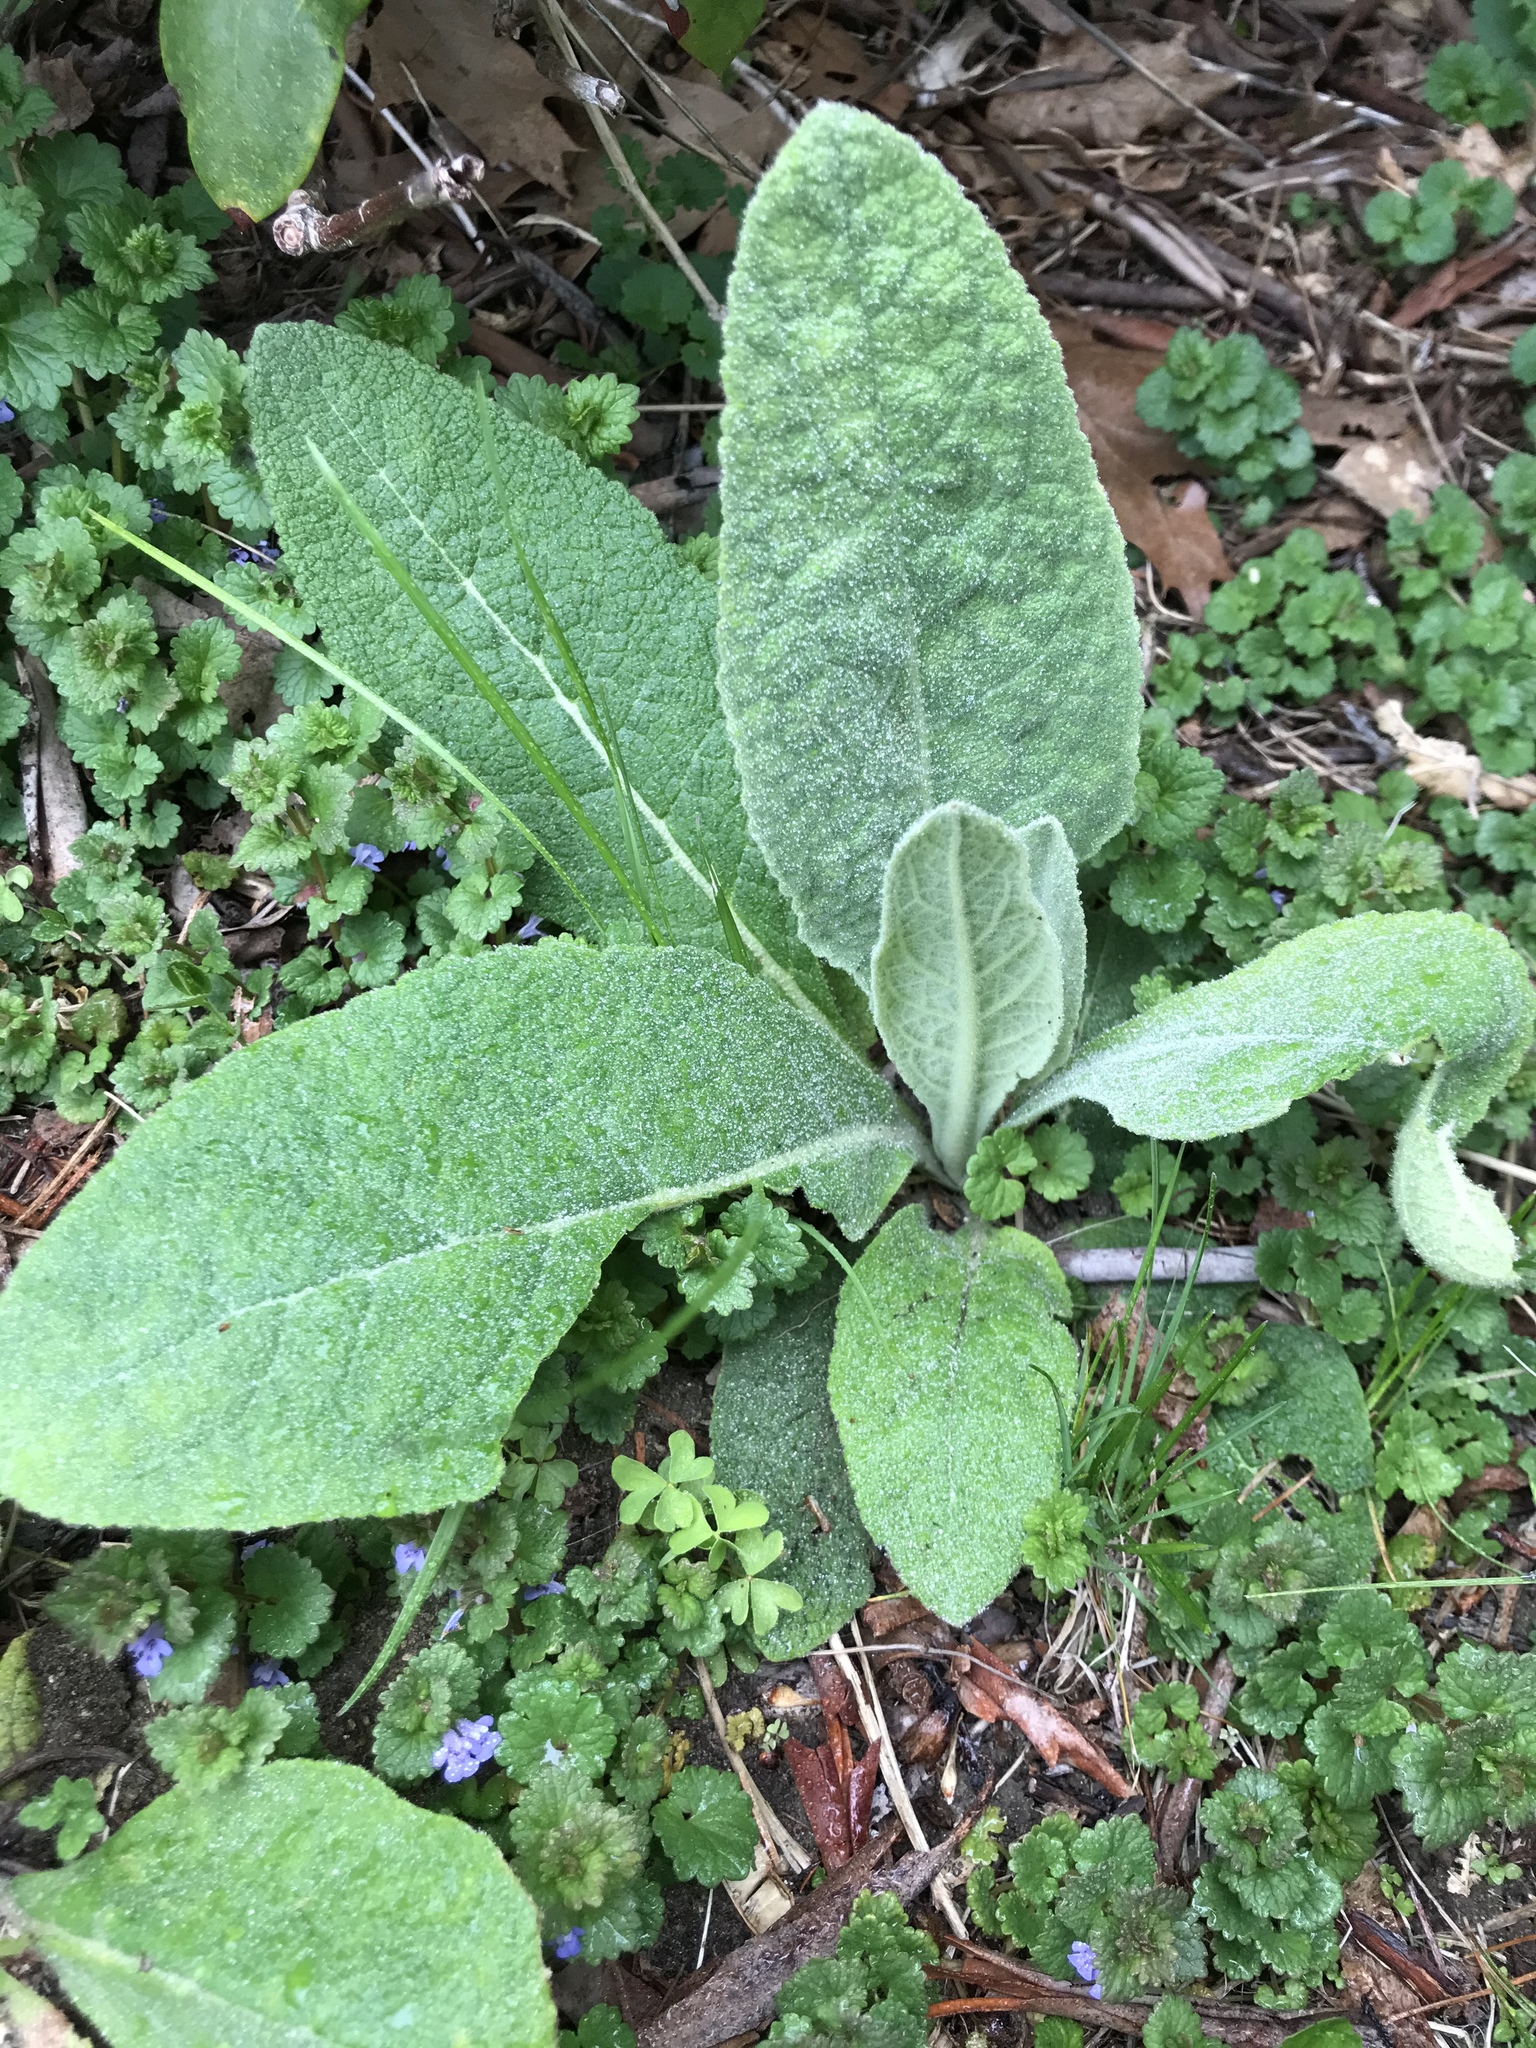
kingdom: Plantae
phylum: Tracheophyta
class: Magnoliopsida
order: Lamiales
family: Scrophulariaceae
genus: Verbascum
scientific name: Verbascum thapsus
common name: Common mullein
